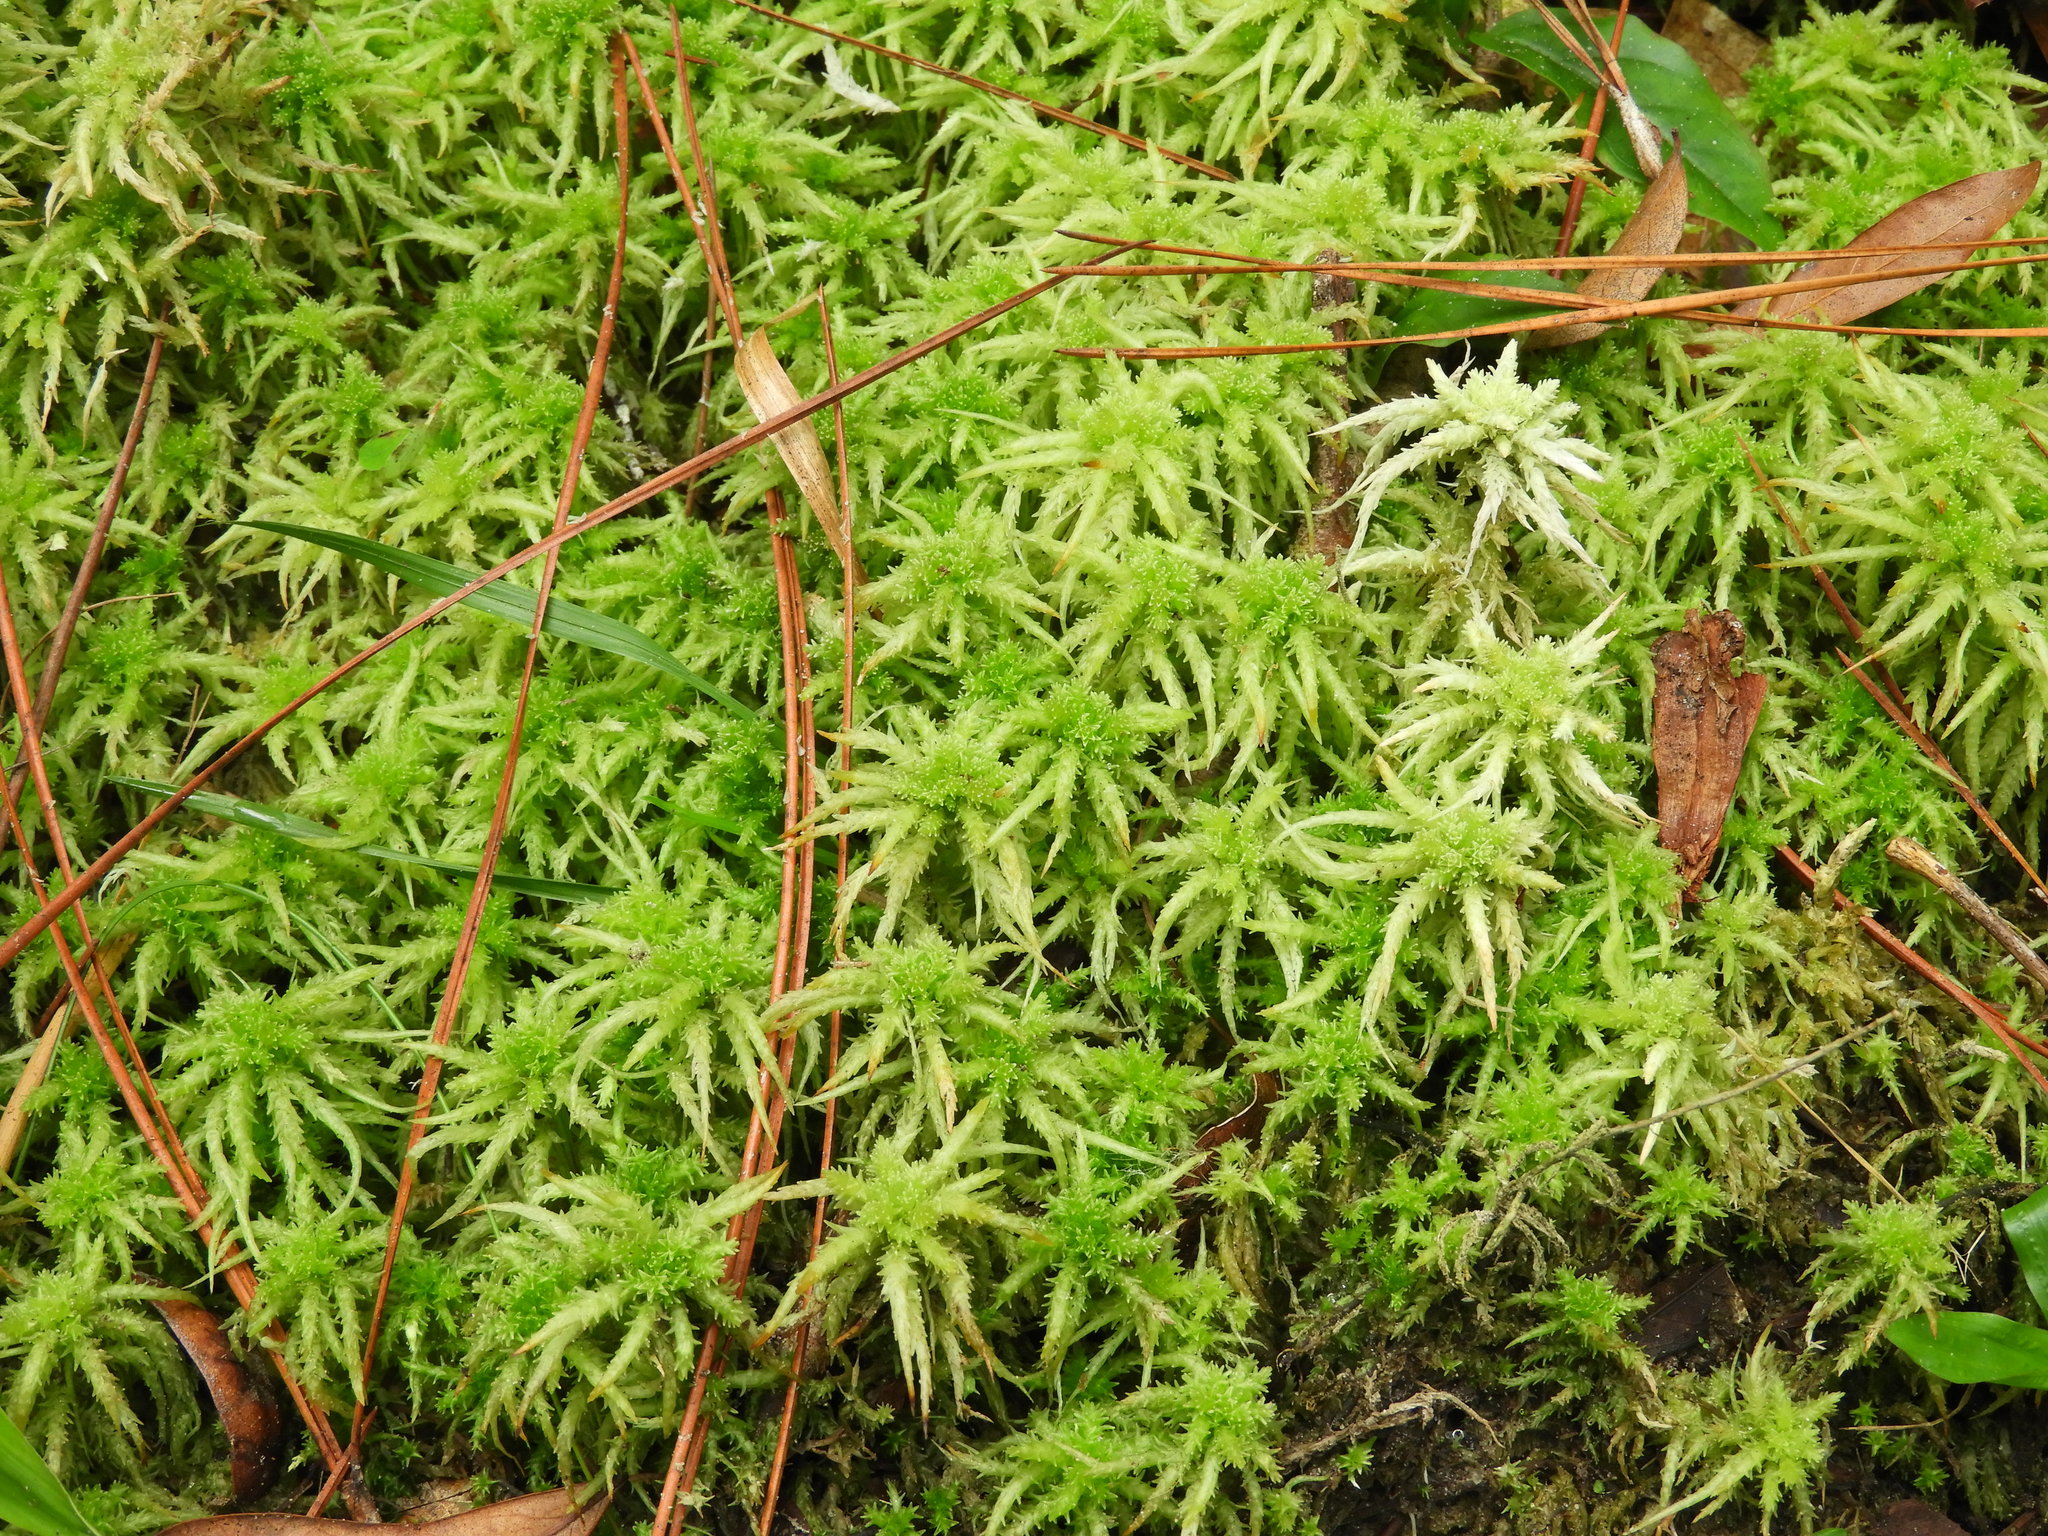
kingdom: Plantae
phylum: Bryophyta
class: Sphagnopsida
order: Sphagnales
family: Sphagnaceae
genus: Sphagnum
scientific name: Sphagnum squarrosum
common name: Shaggy peat moss
